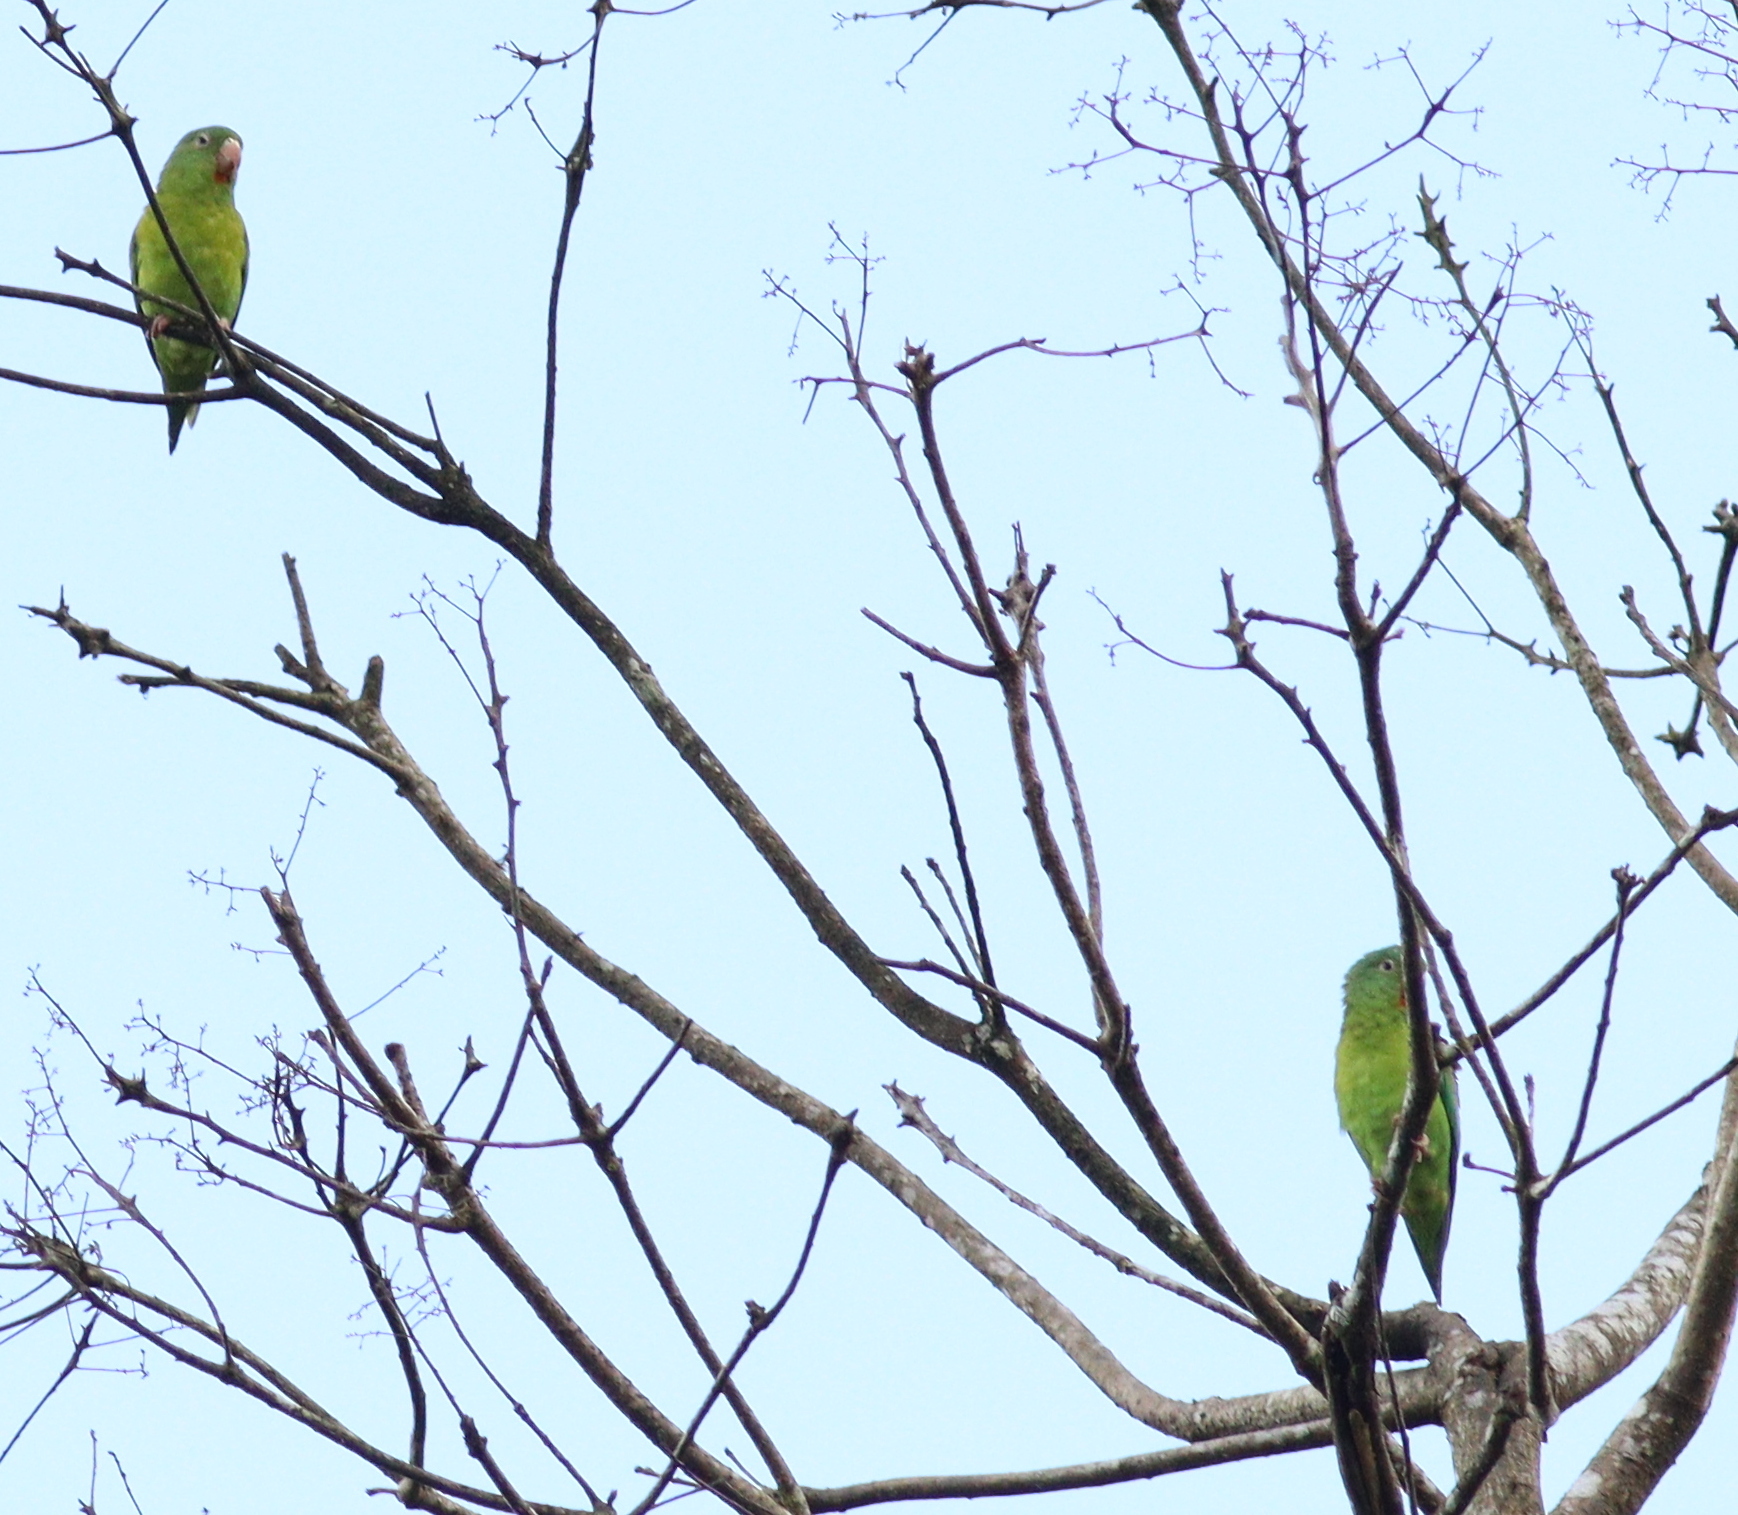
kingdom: Animalia
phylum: Chordata
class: Aves
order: Psittaciformes
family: Psittacidae
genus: Brotogeris
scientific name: Brotogeris jugularis
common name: Orange-chinned parakeet
